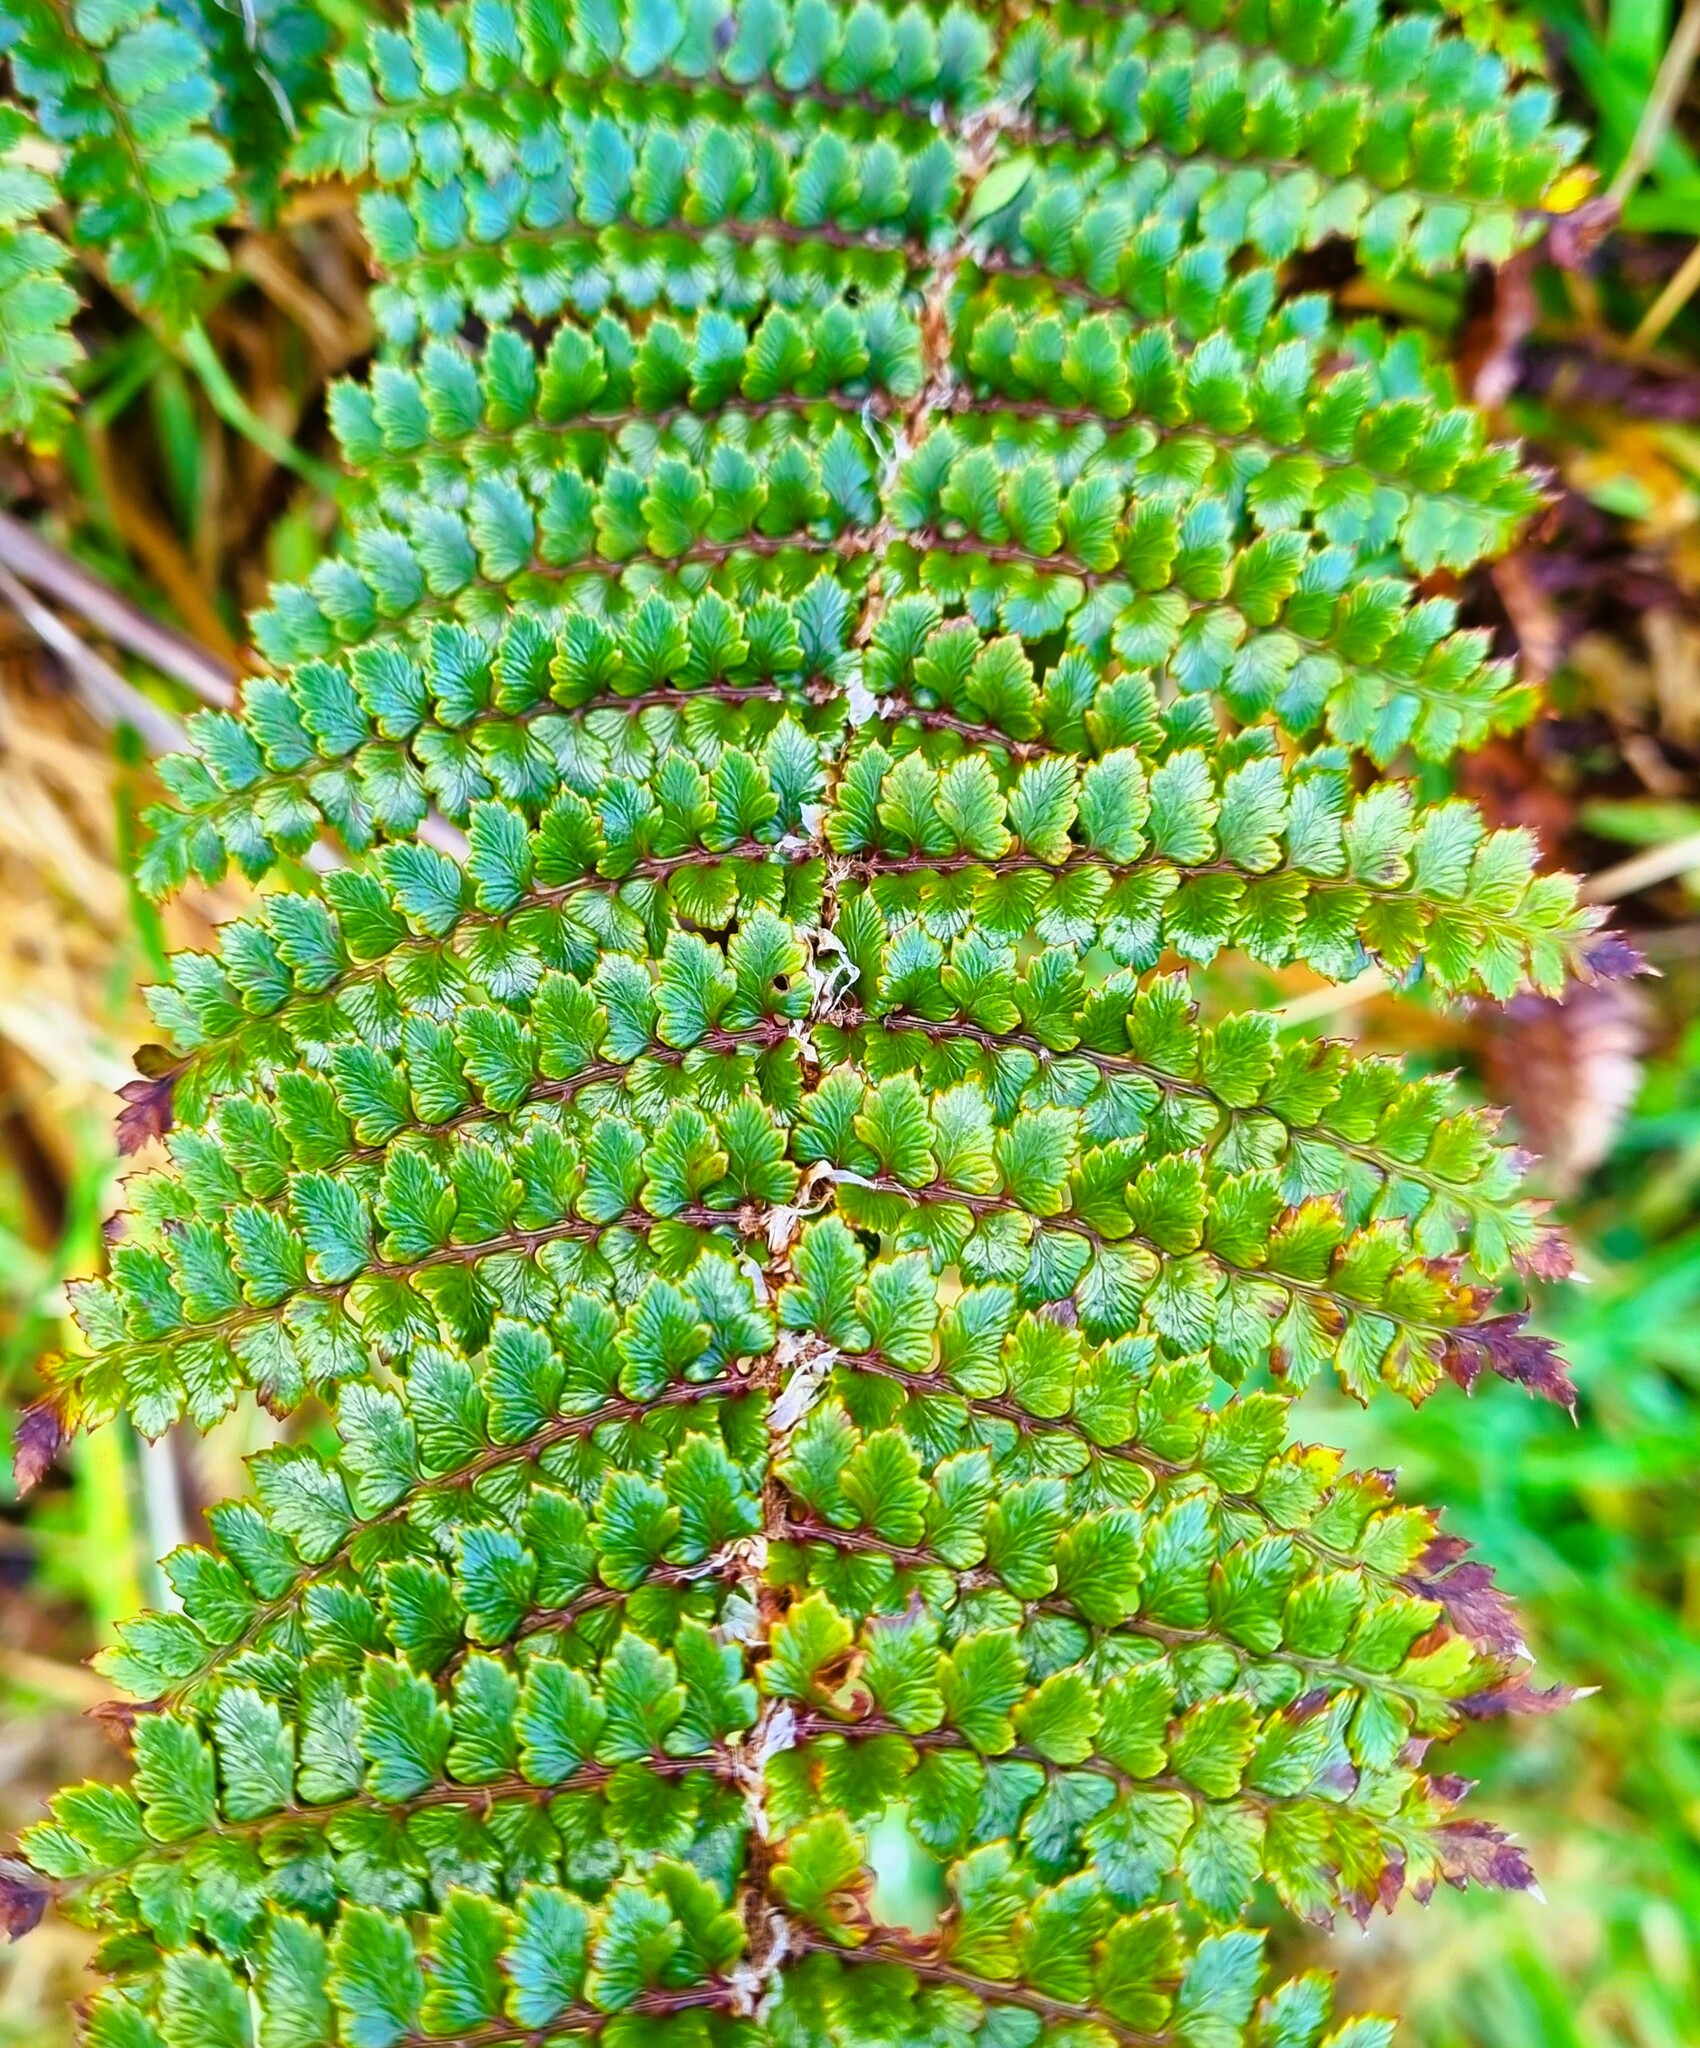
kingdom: Plantae
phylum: Tracheophyta
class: Polypodiopsida
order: Polypodiales
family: Dryopteridaceae
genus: Polystichum
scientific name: Polystichum vestitum
